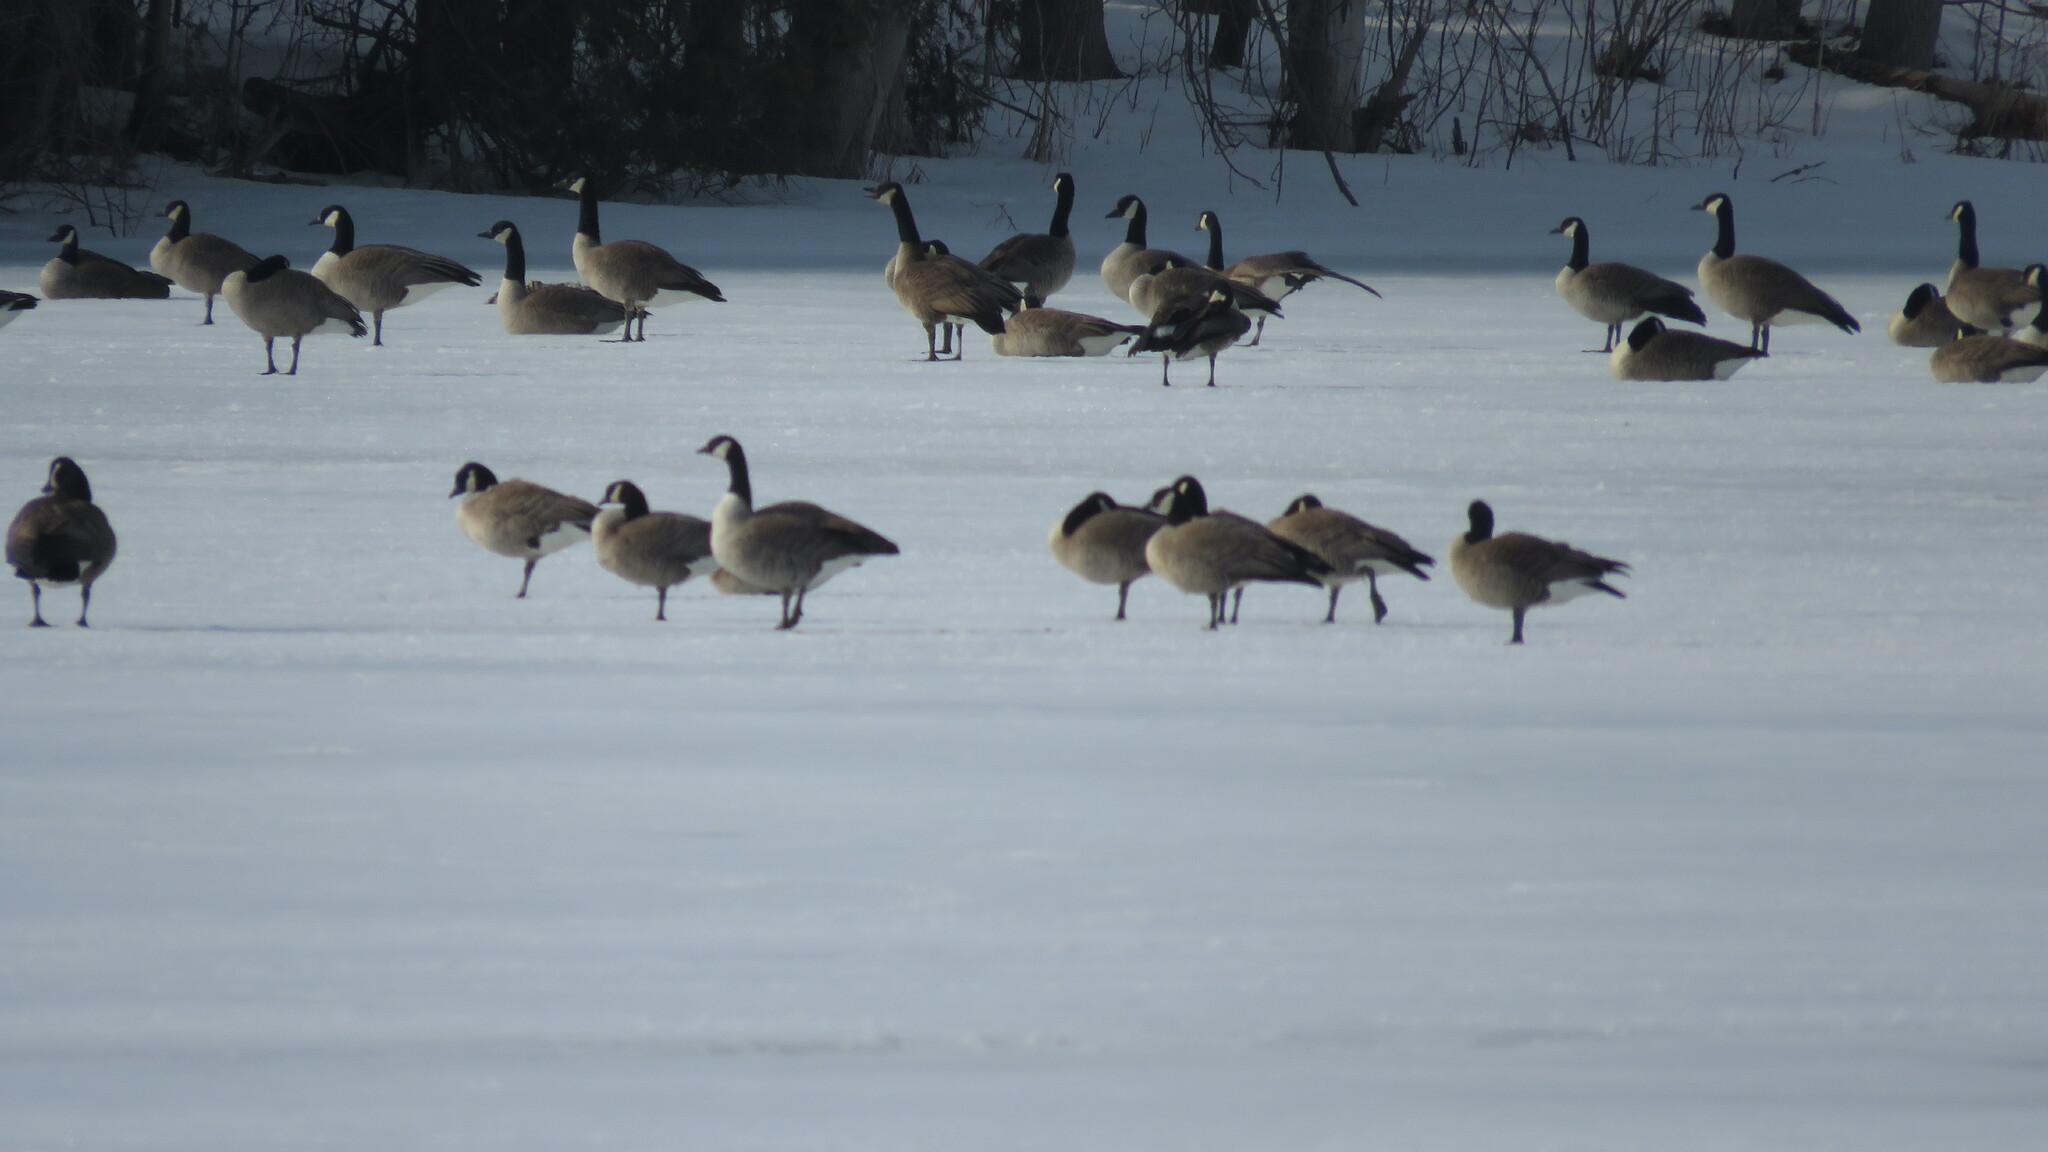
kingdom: Animalia
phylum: Chordata
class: Aves
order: Anseriformes
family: Anatidae
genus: Branta
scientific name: Branta hutchinsii
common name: Cackling goose
